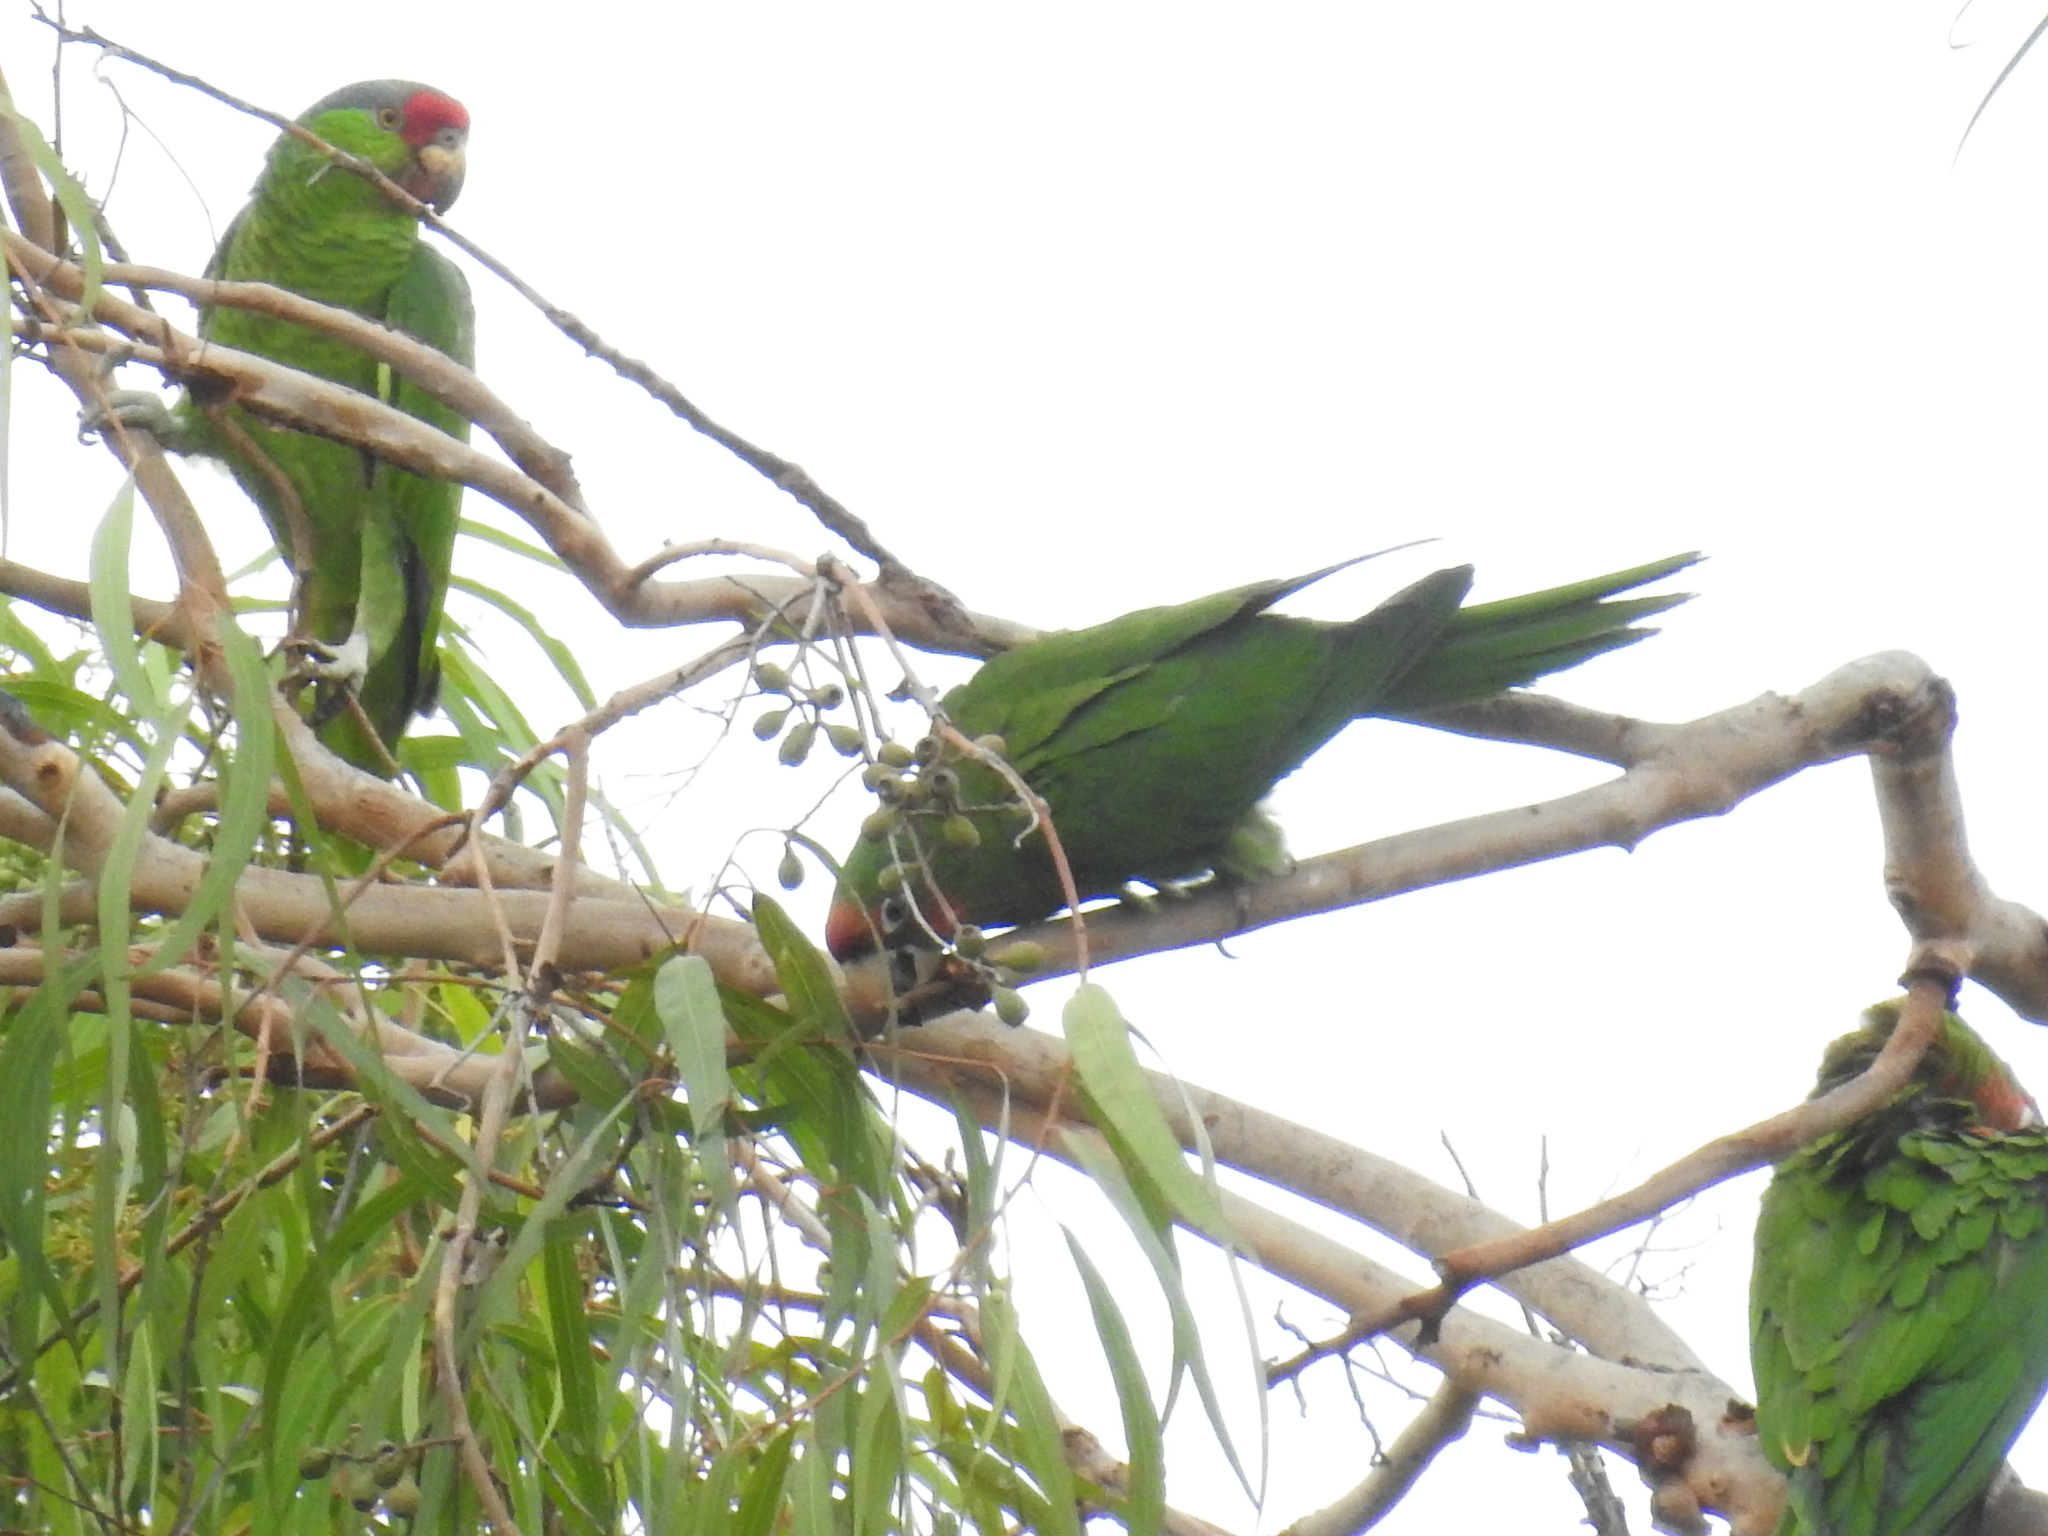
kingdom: Animalia
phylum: Chordata
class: Aves
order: Psittaciformes
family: Psittacidae
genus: Aratinga
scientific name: Aratinga mitrata
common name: Mitred parakeet
